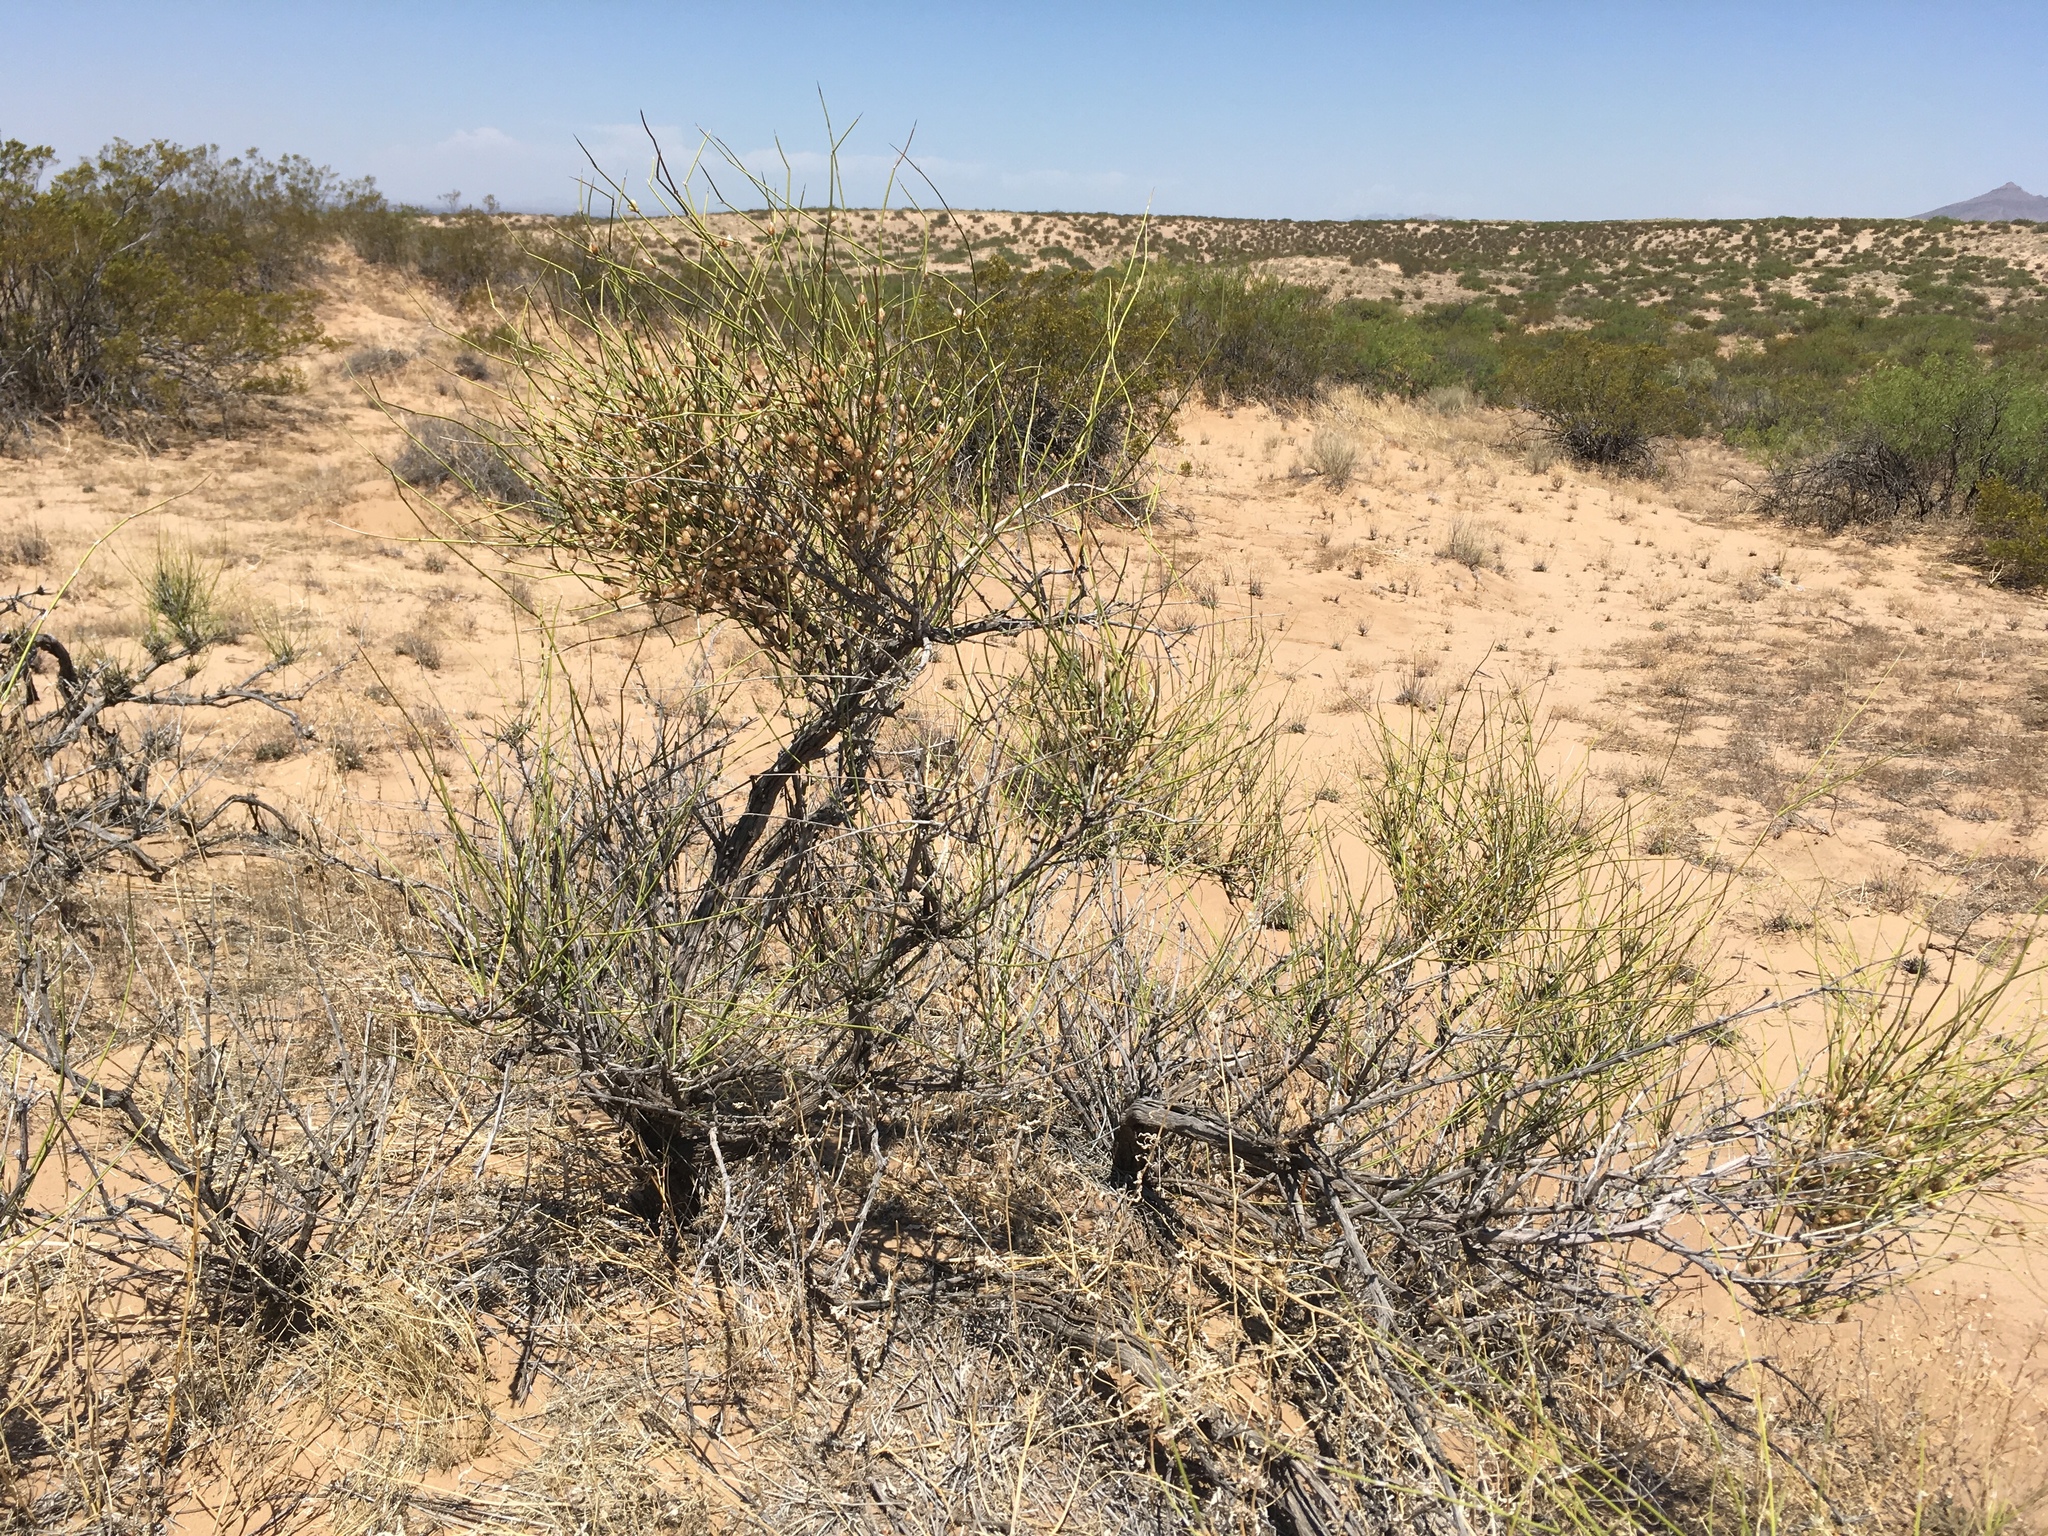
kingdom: Plantae
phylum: Tracheophyta
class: Gnetopsida
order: Ephedrales
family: Ephedraceae
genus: Ephedra
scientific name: Ephedra trifurca
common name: Mexican-tea
